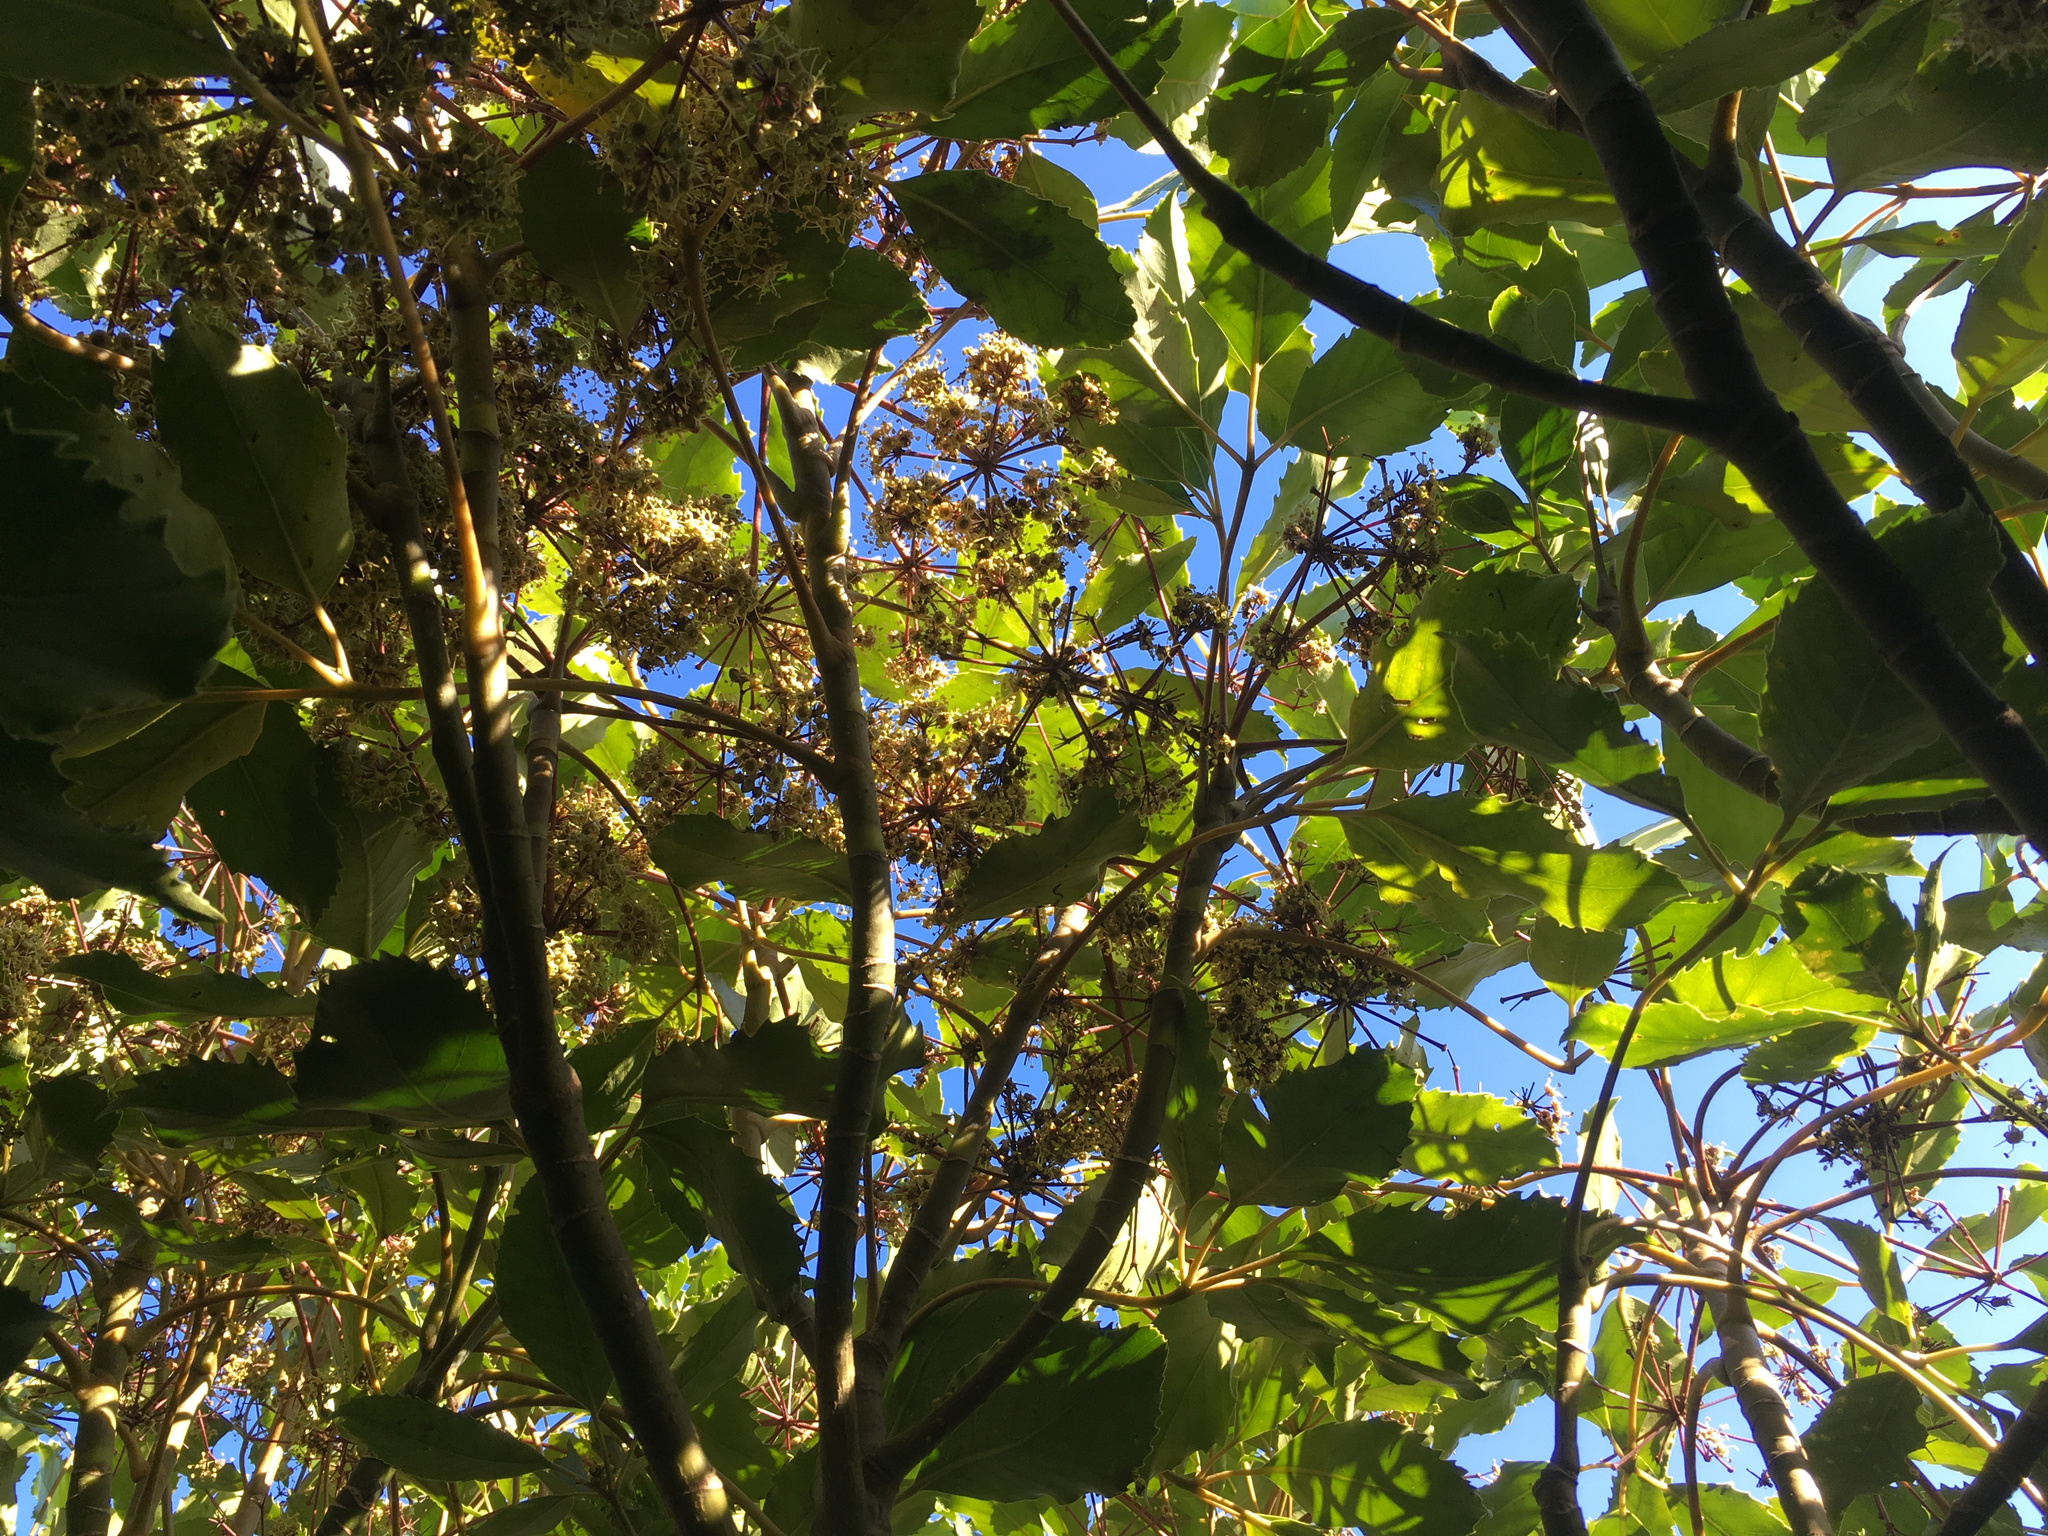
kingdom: Plantae
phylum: Tracheophyta
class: Magnoliopsida
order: Apiales
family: Araliaceae
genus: Neopanax
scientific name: Neopanax arboreus
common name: Five-fingers
